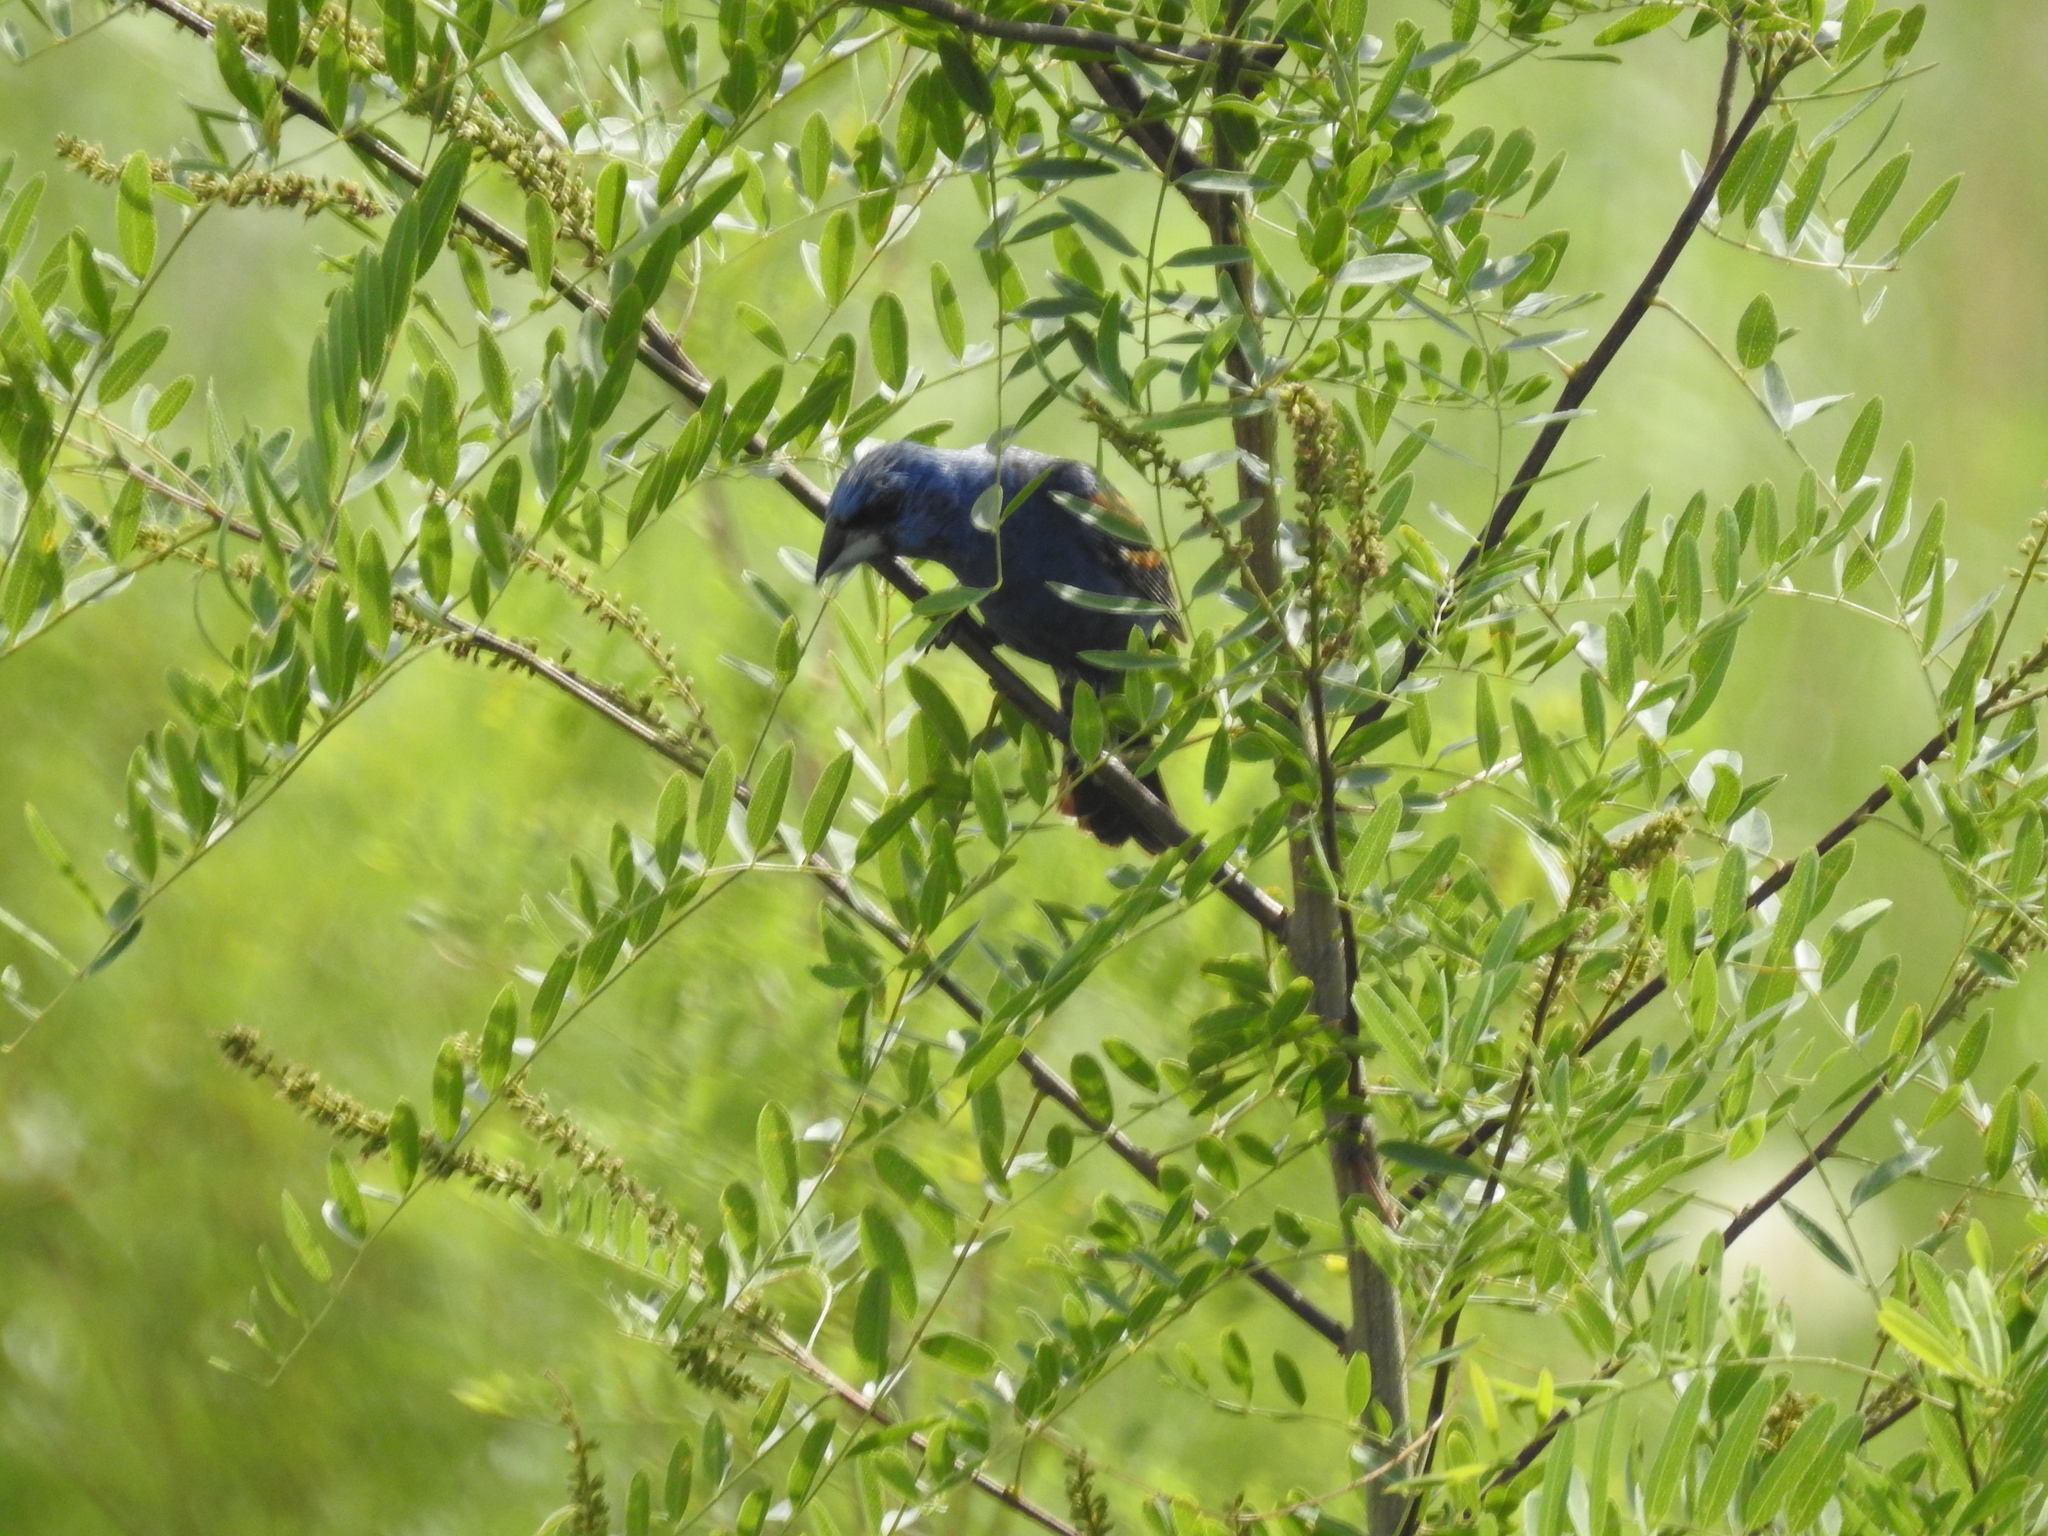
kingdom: Animalia
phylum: Chordata
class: Aves
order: Passeriformes
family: Cardinalidae
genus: Passerina
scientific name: Passerina caerulea
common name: Blue grosbeak
